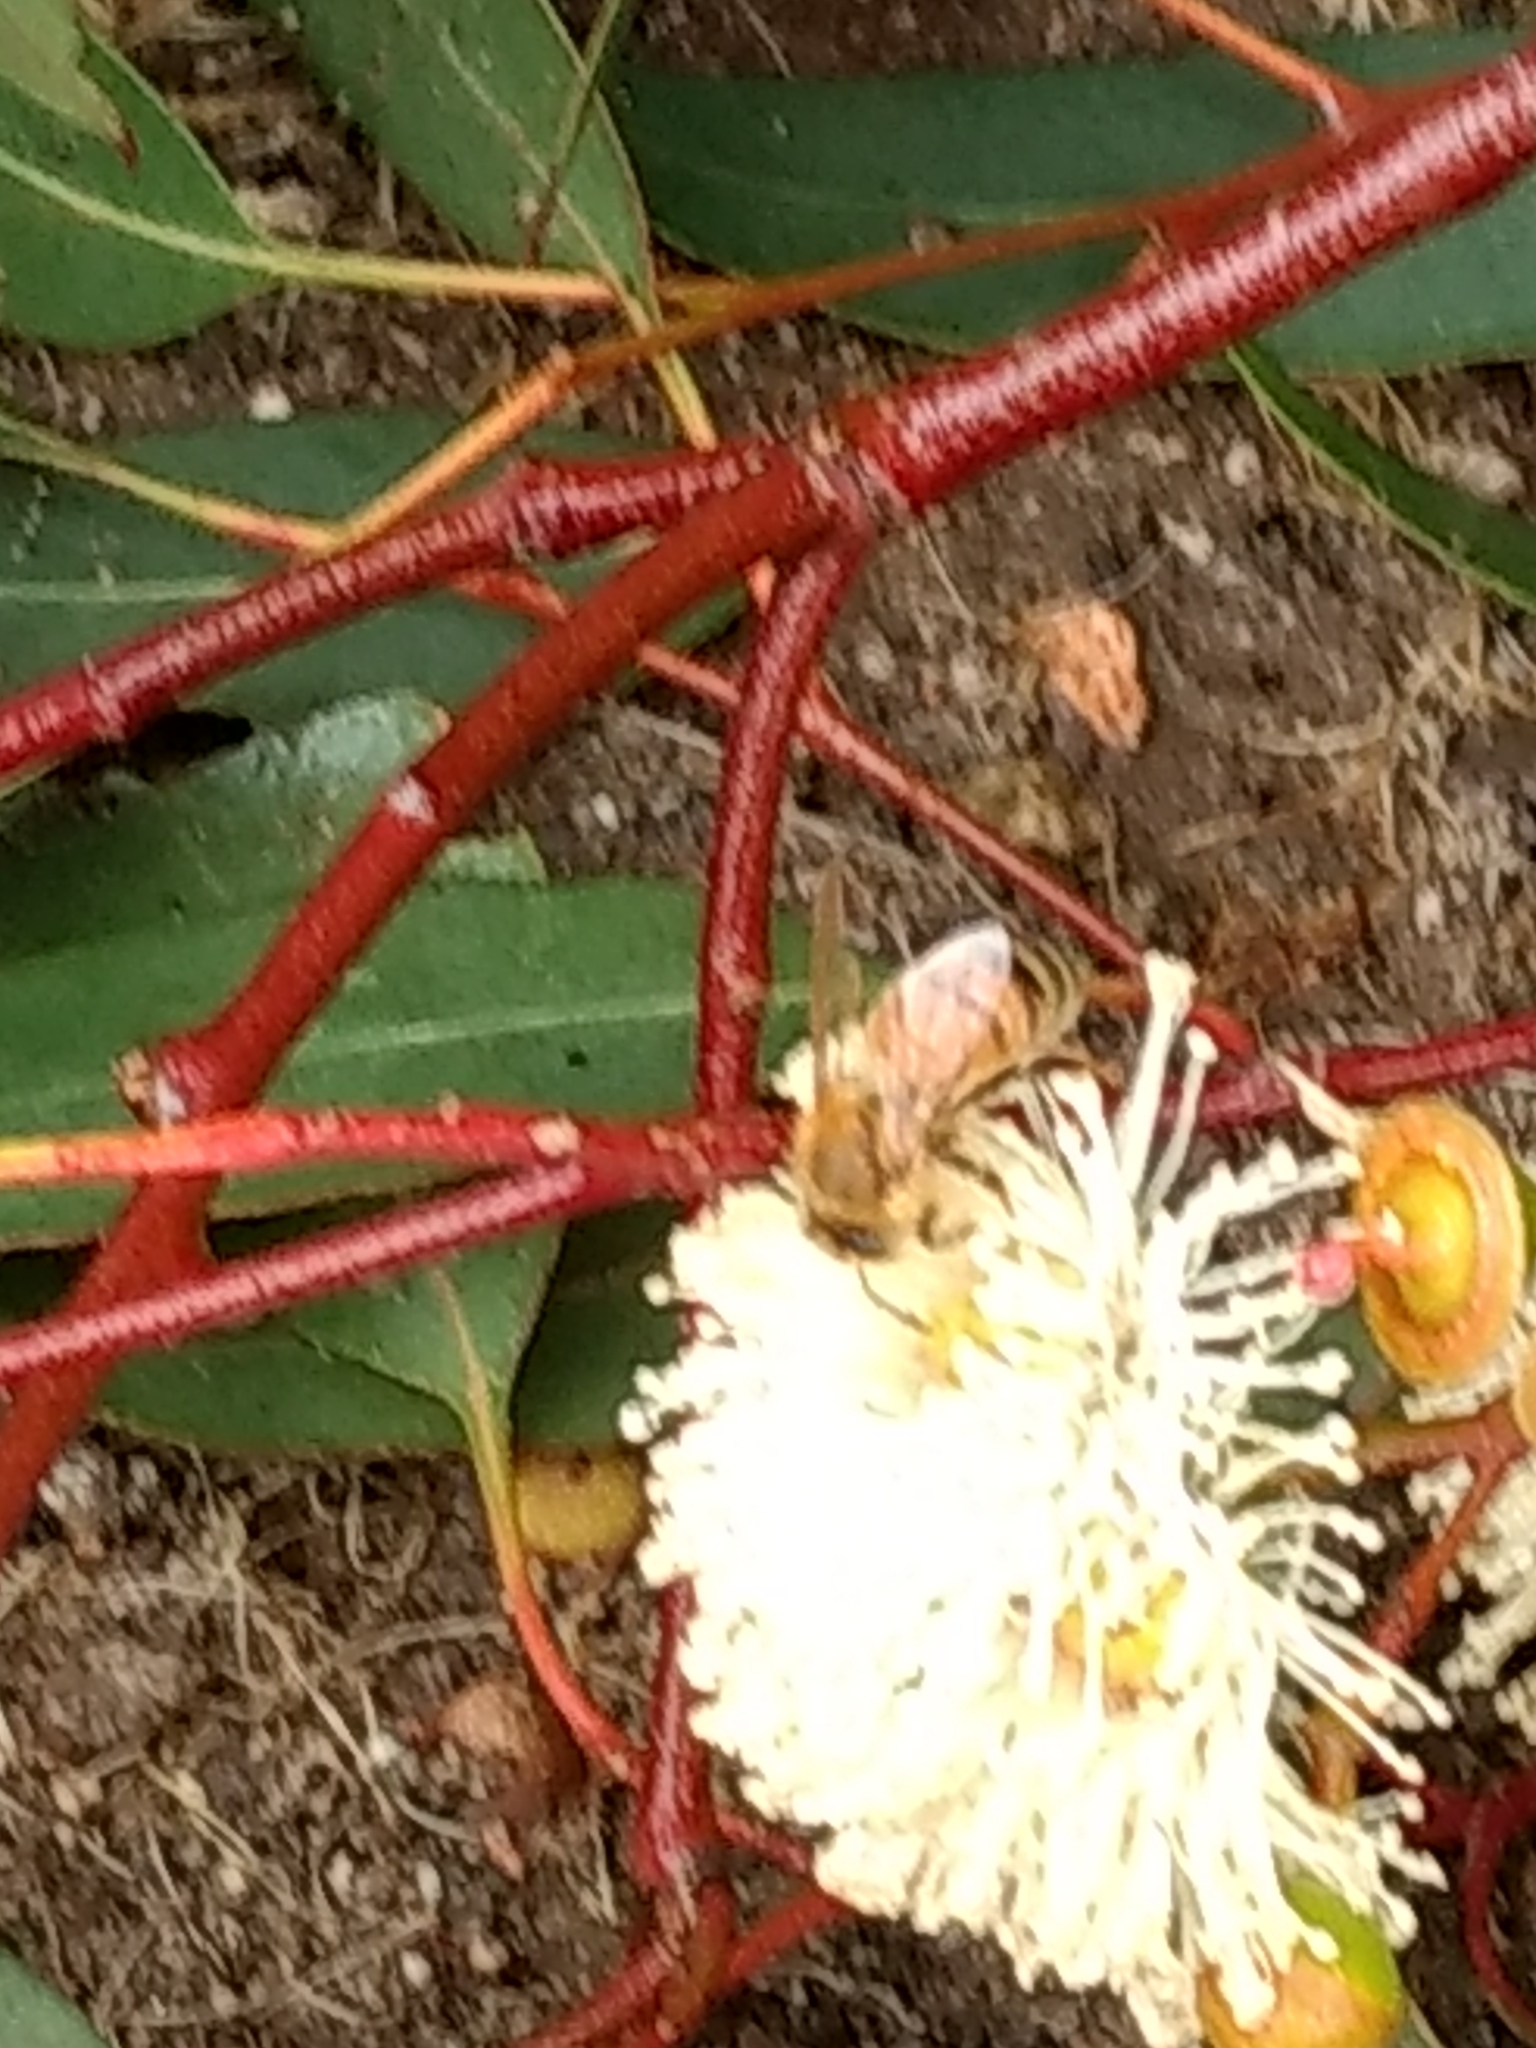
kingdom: Animalia
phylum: Arthropoda
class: Insecta
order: Hymenoptera
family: Apidae
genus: Apis
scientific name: Apis mellifera
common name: Honey bee
